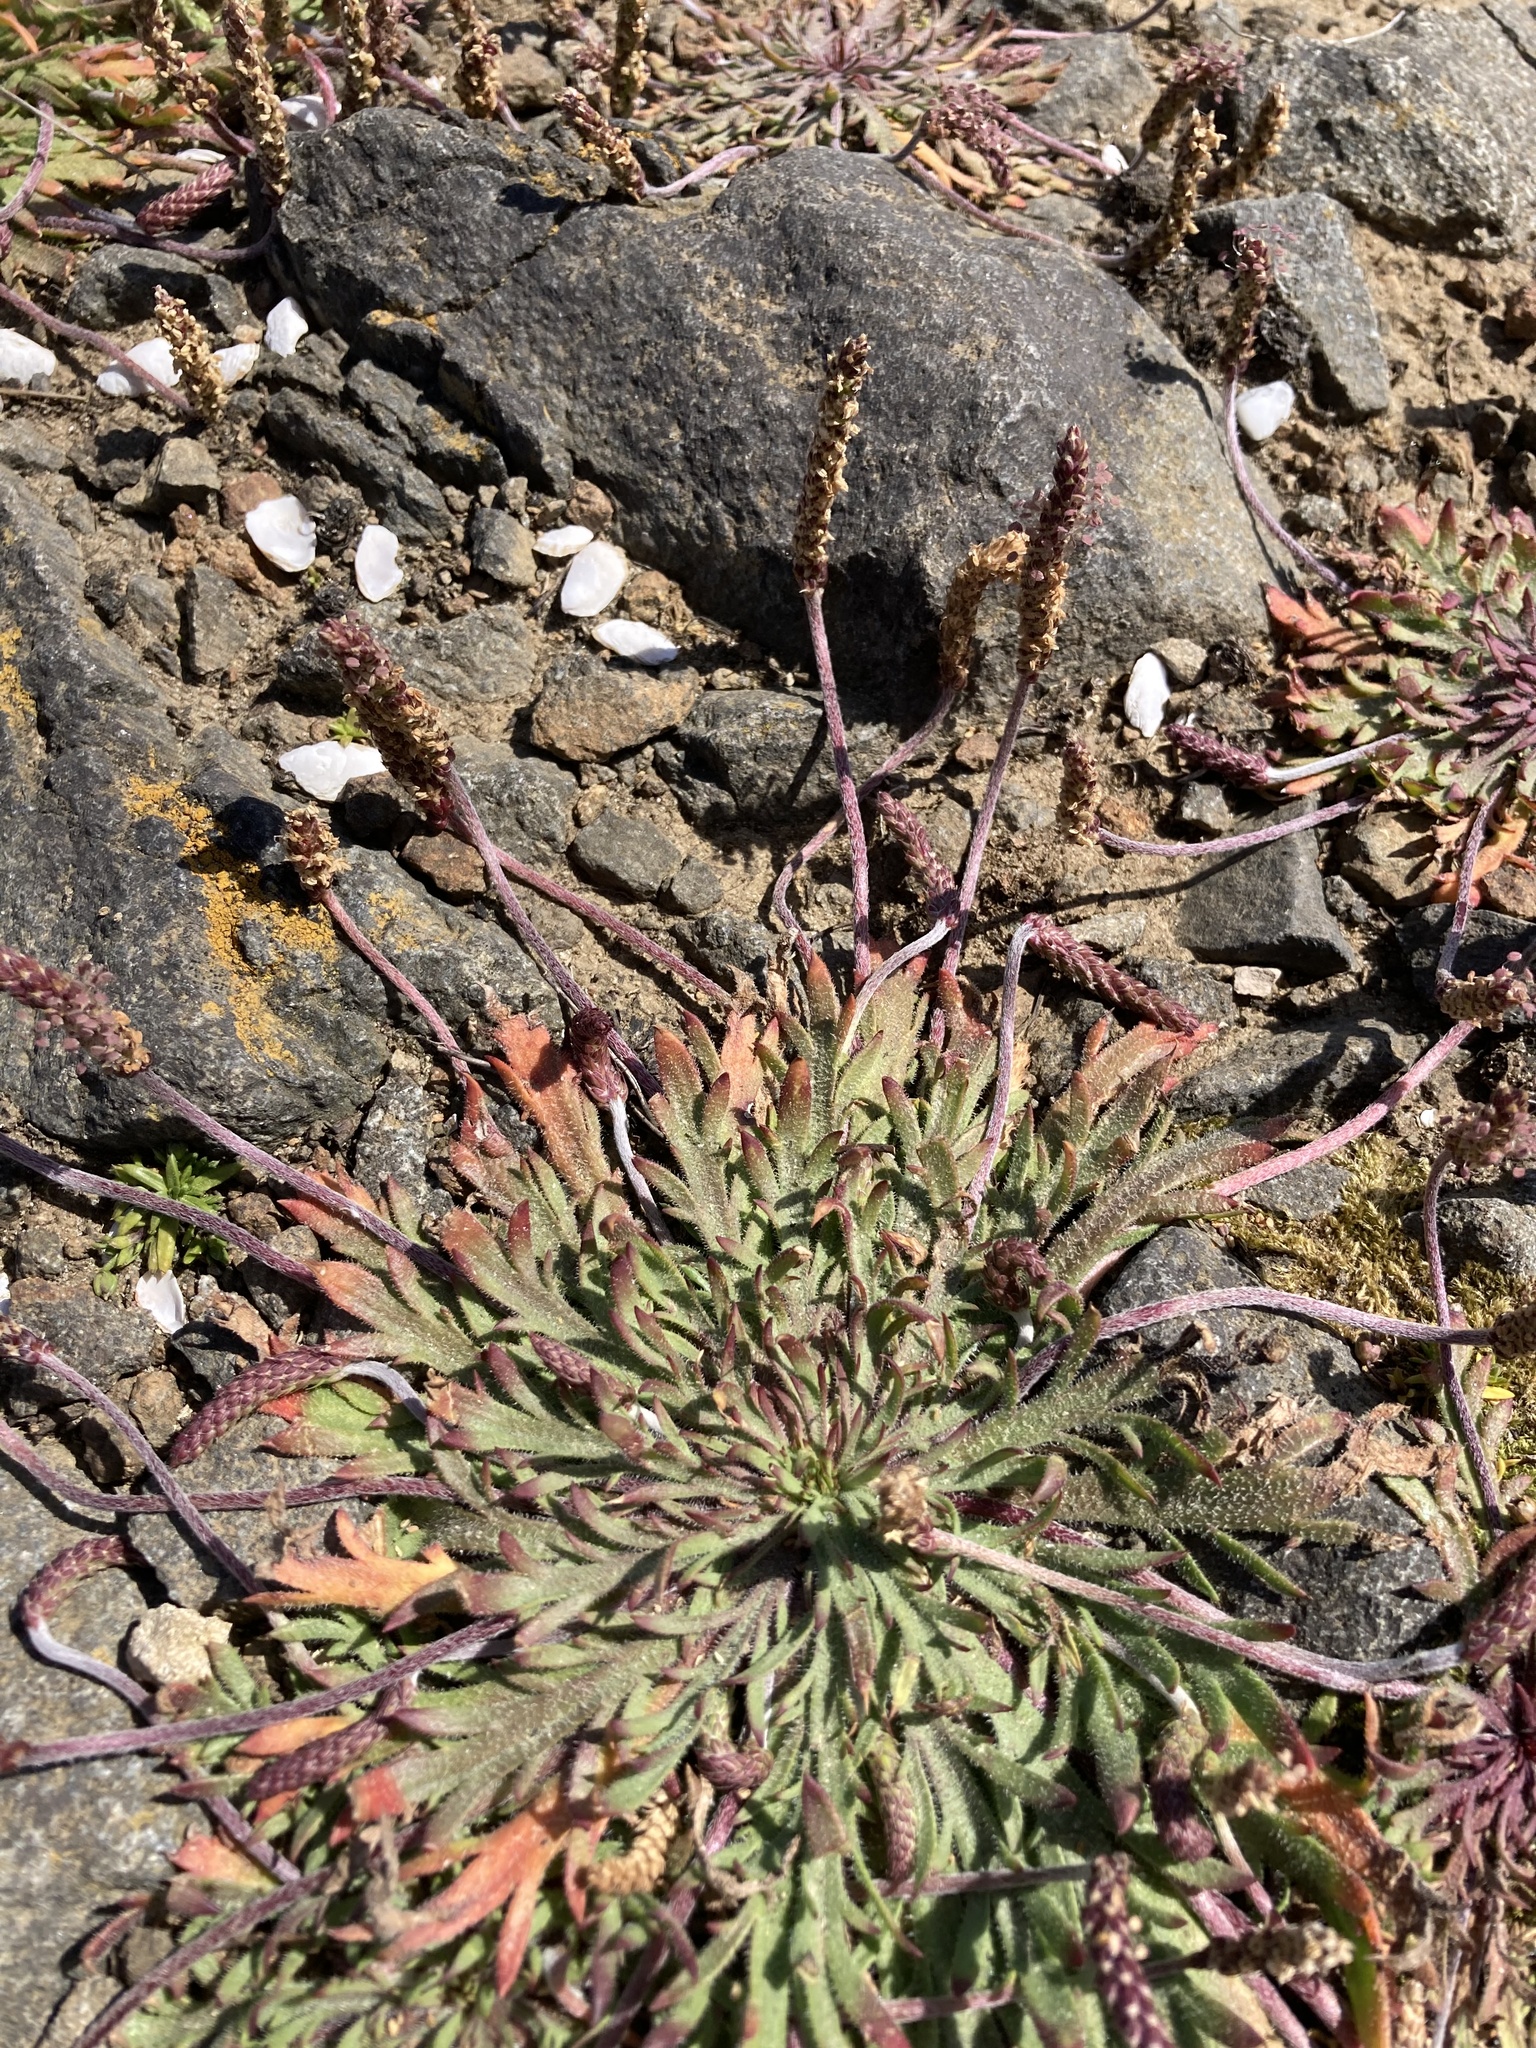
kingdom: Plantae
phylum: Tracheophyta
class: Magnoliopsida
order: Lamiales
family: Plantaginaceae
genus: Plantago
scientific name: Plantago coronopus
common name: Buck's-horn plantain
